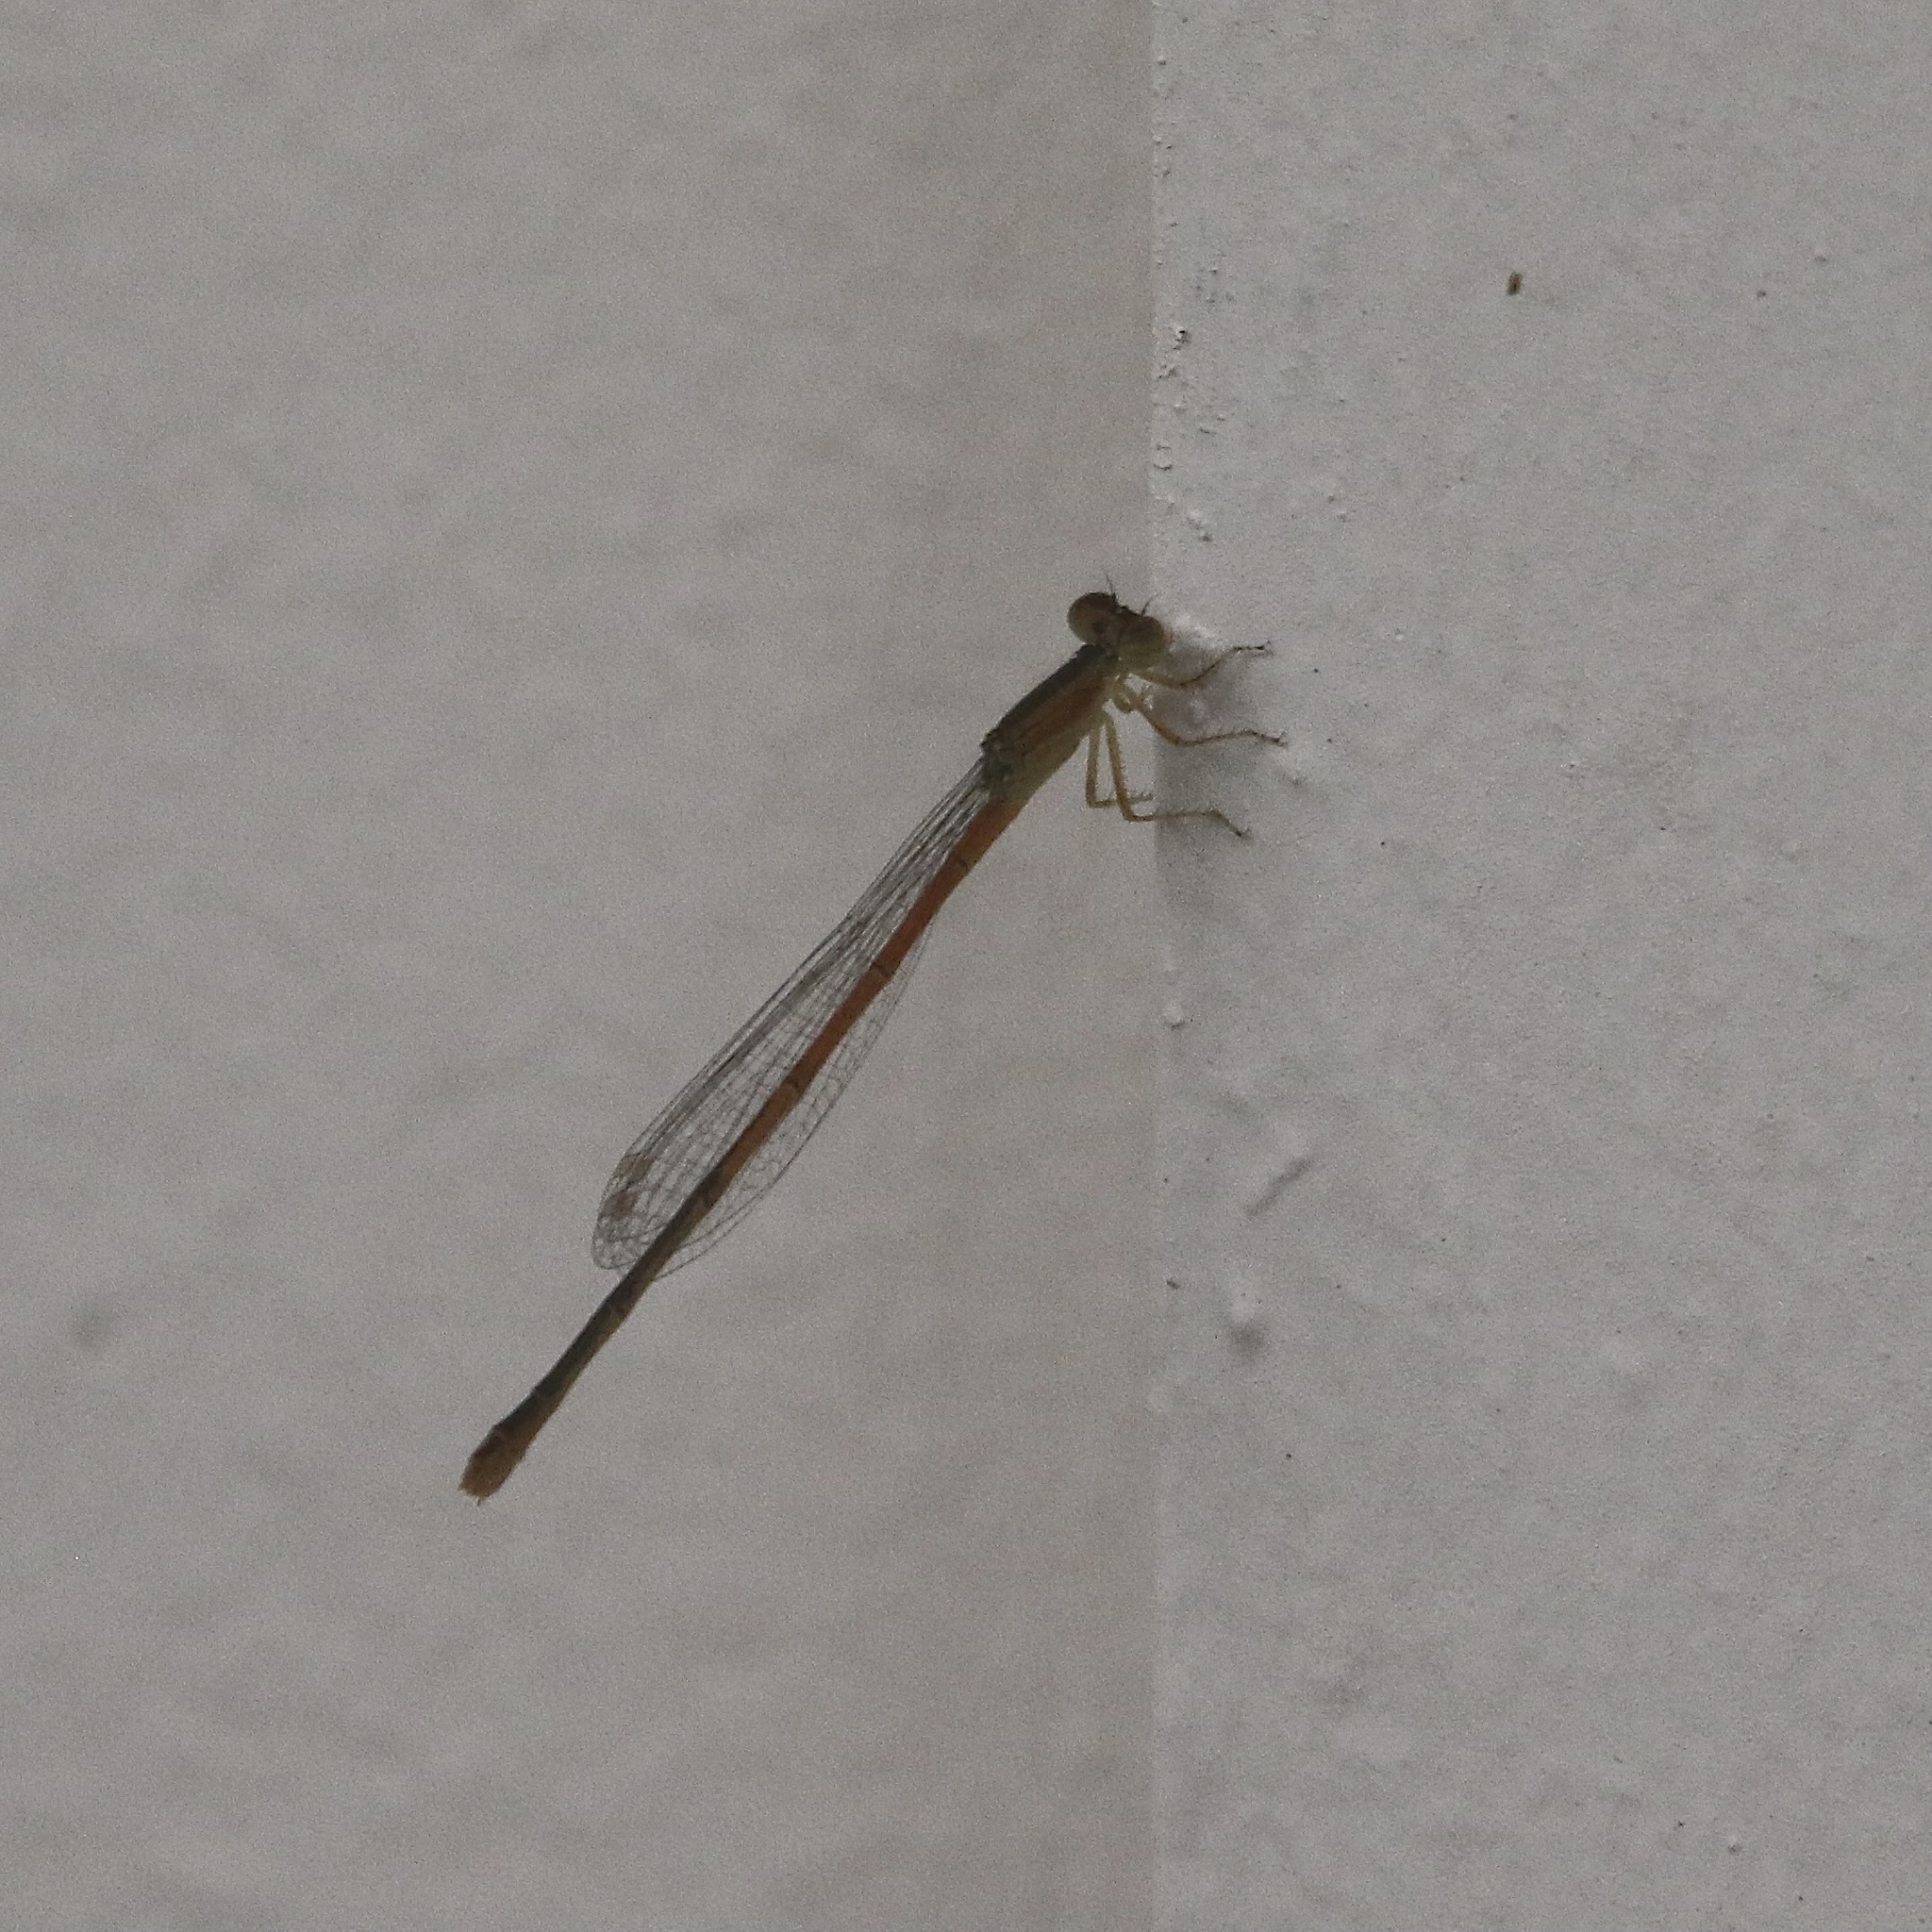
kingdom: Animalia
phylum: Arthropoda
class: Insecta
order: Odonata
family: Coenagrionidae
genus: Ischnura
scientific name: Ischnura hastata
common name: Citrine forktail
